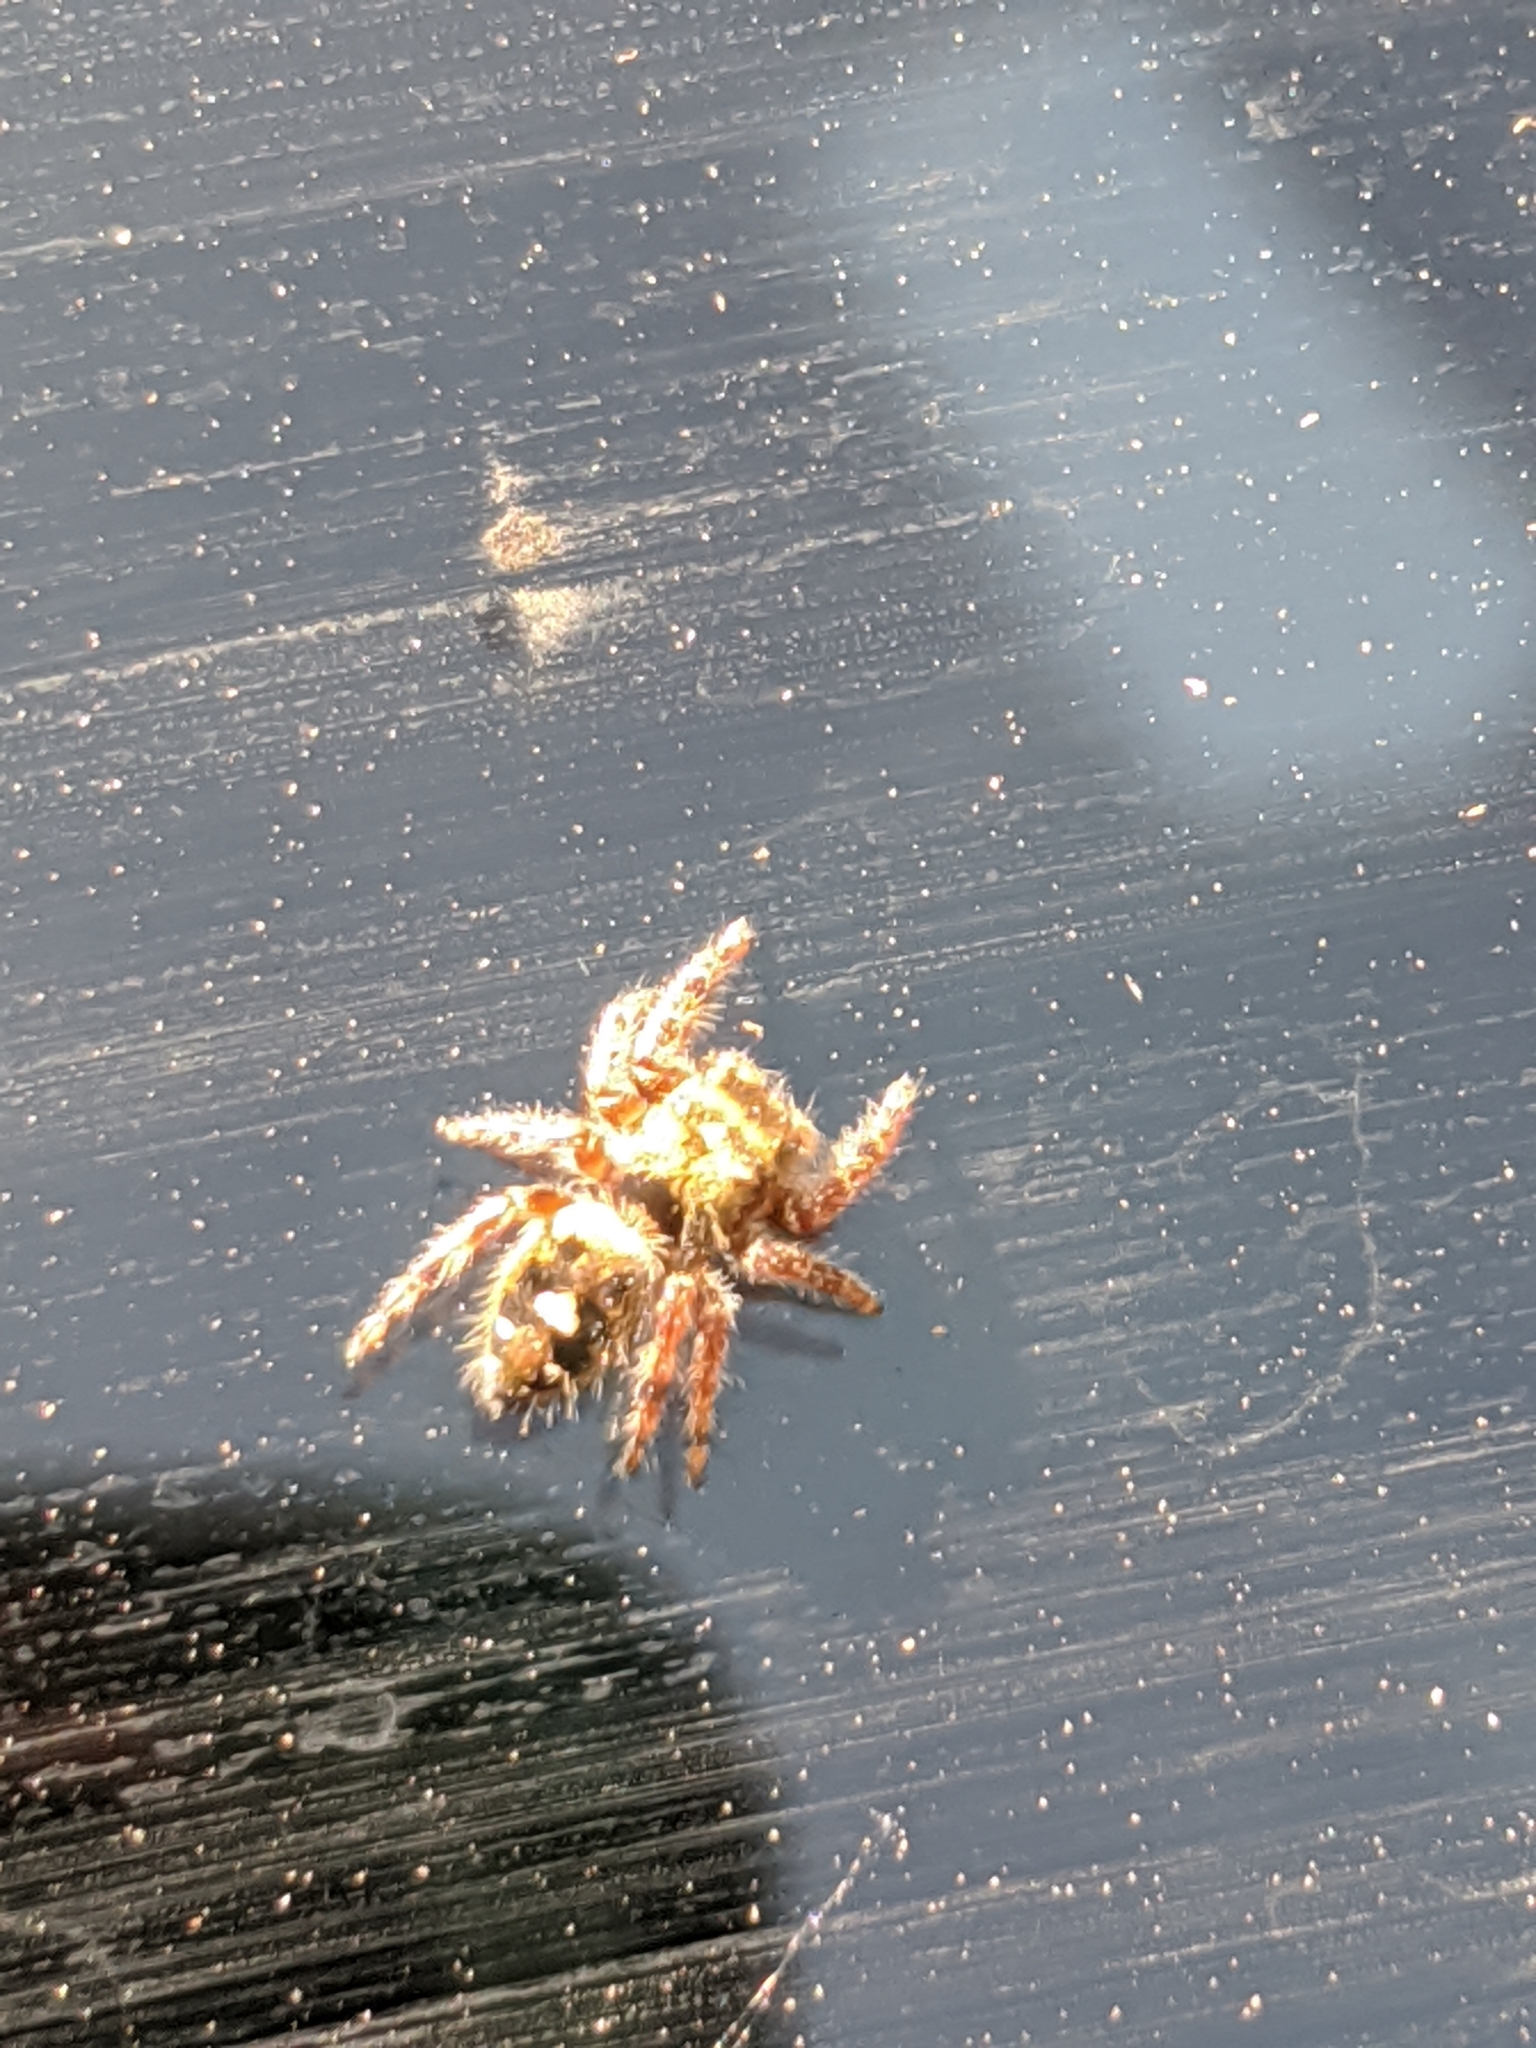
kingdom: Animalia
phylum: Arthropoda
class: Arachnida
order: Araneae
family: Salticidae
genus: Phidippus
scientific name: Phidippus audax
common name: Bold jumper
